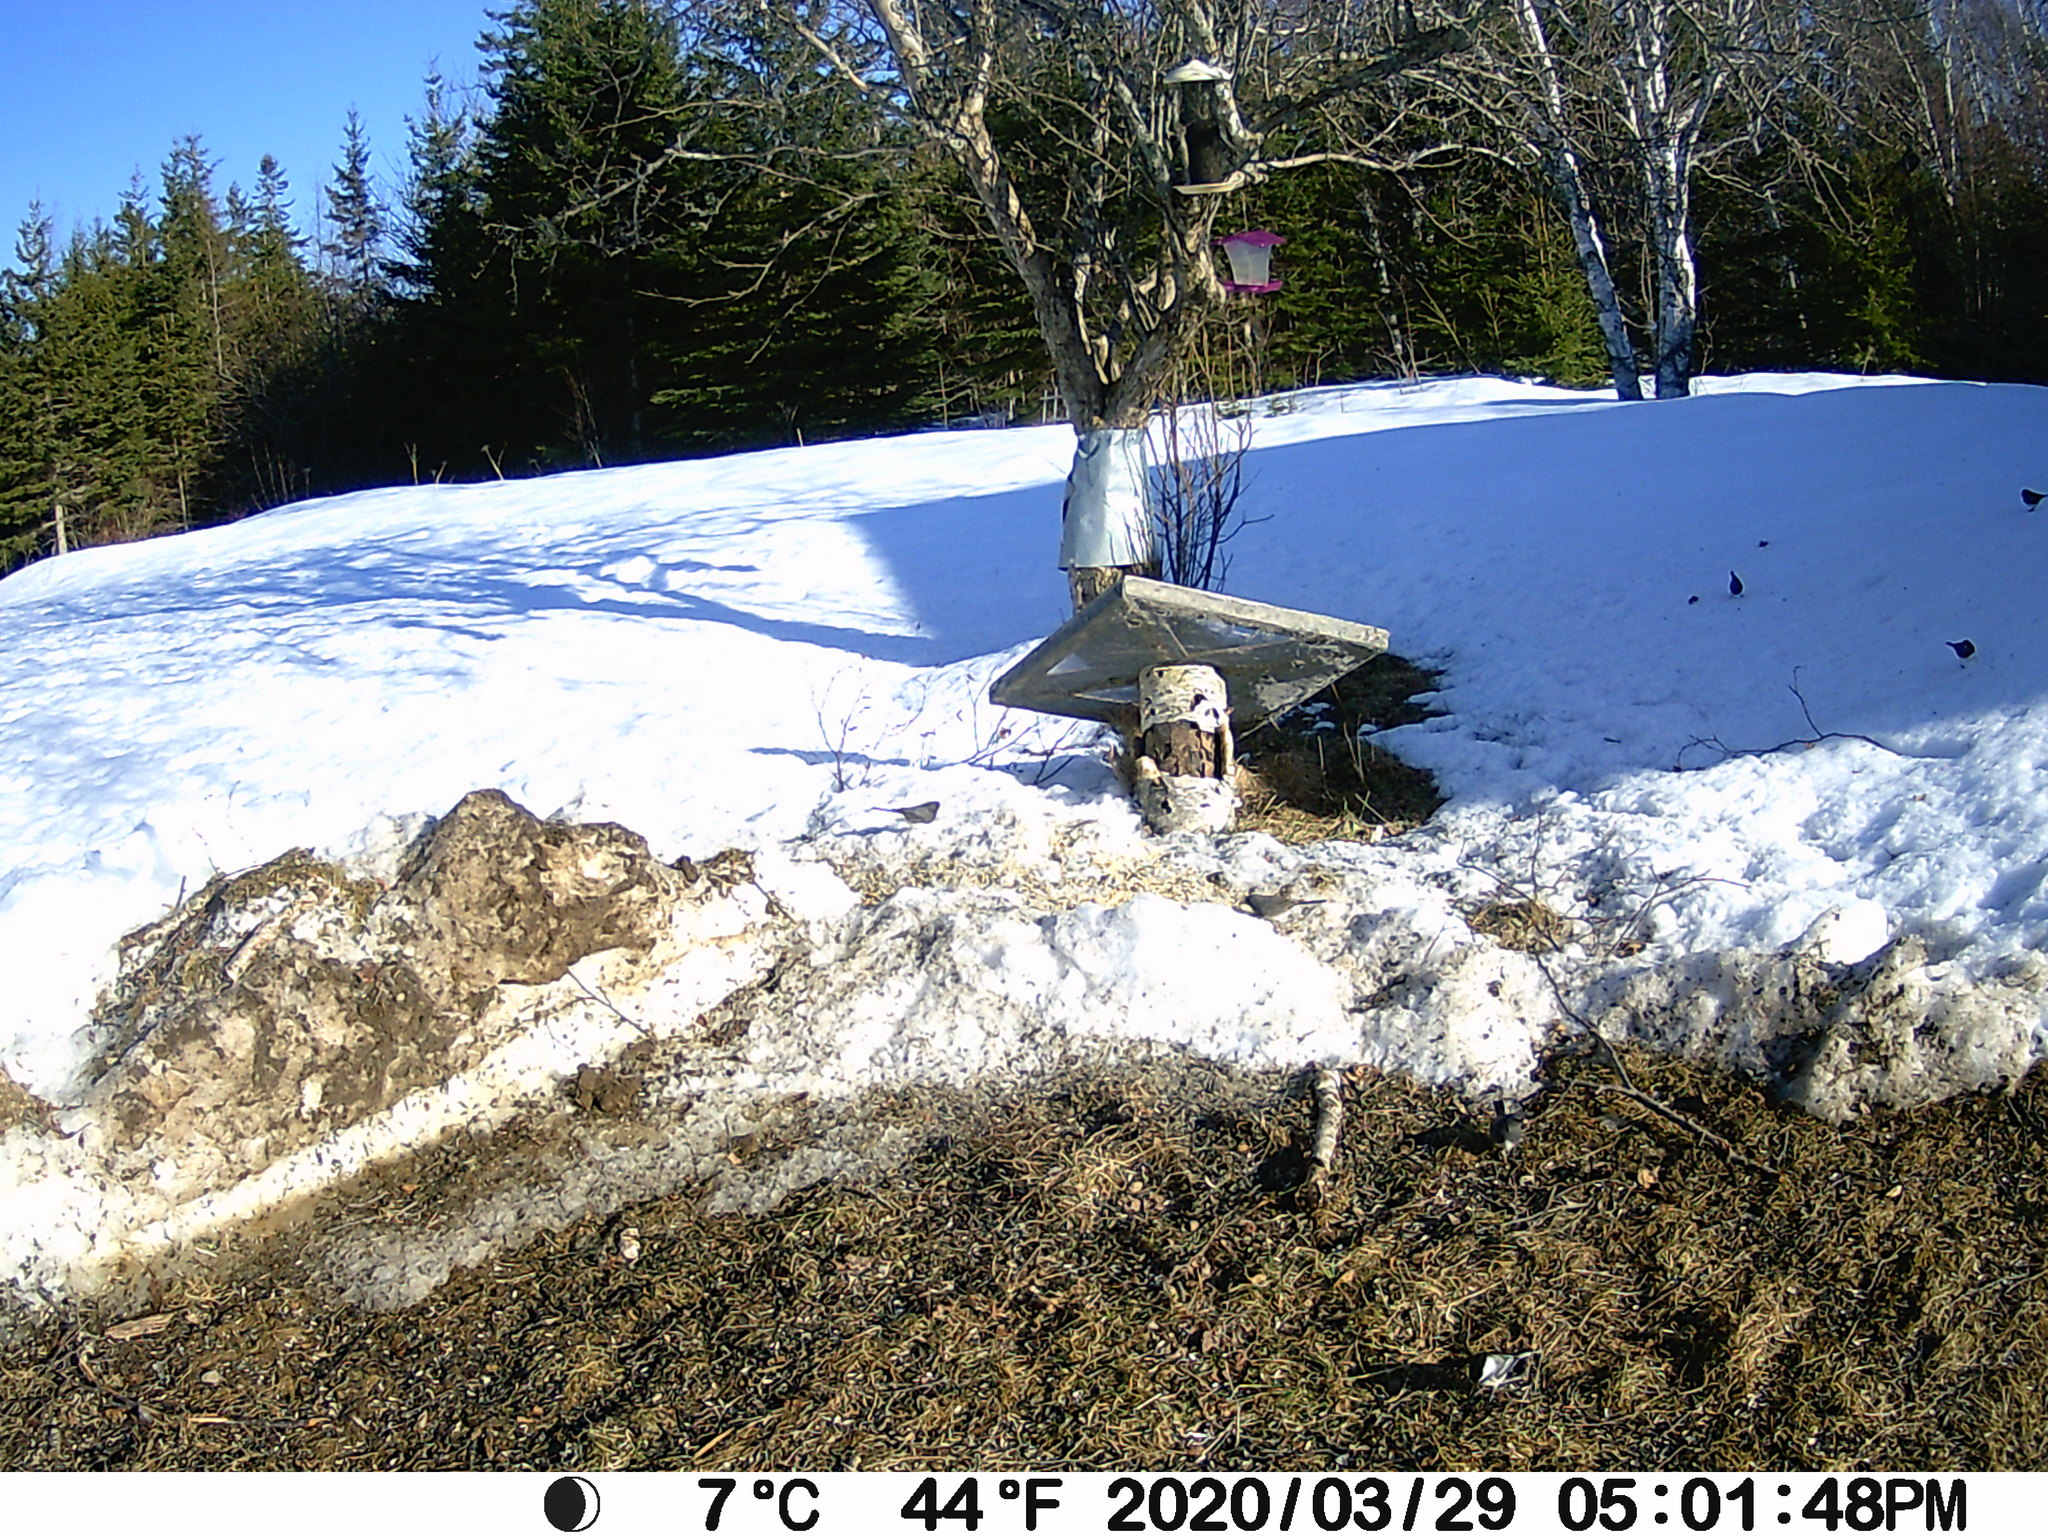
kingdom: Animalia
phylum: Chordata
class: Aves
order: Passeriformes
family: Paridae
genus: Poecile
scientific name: Poecile atricapillus
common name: Black-capped chickadee
